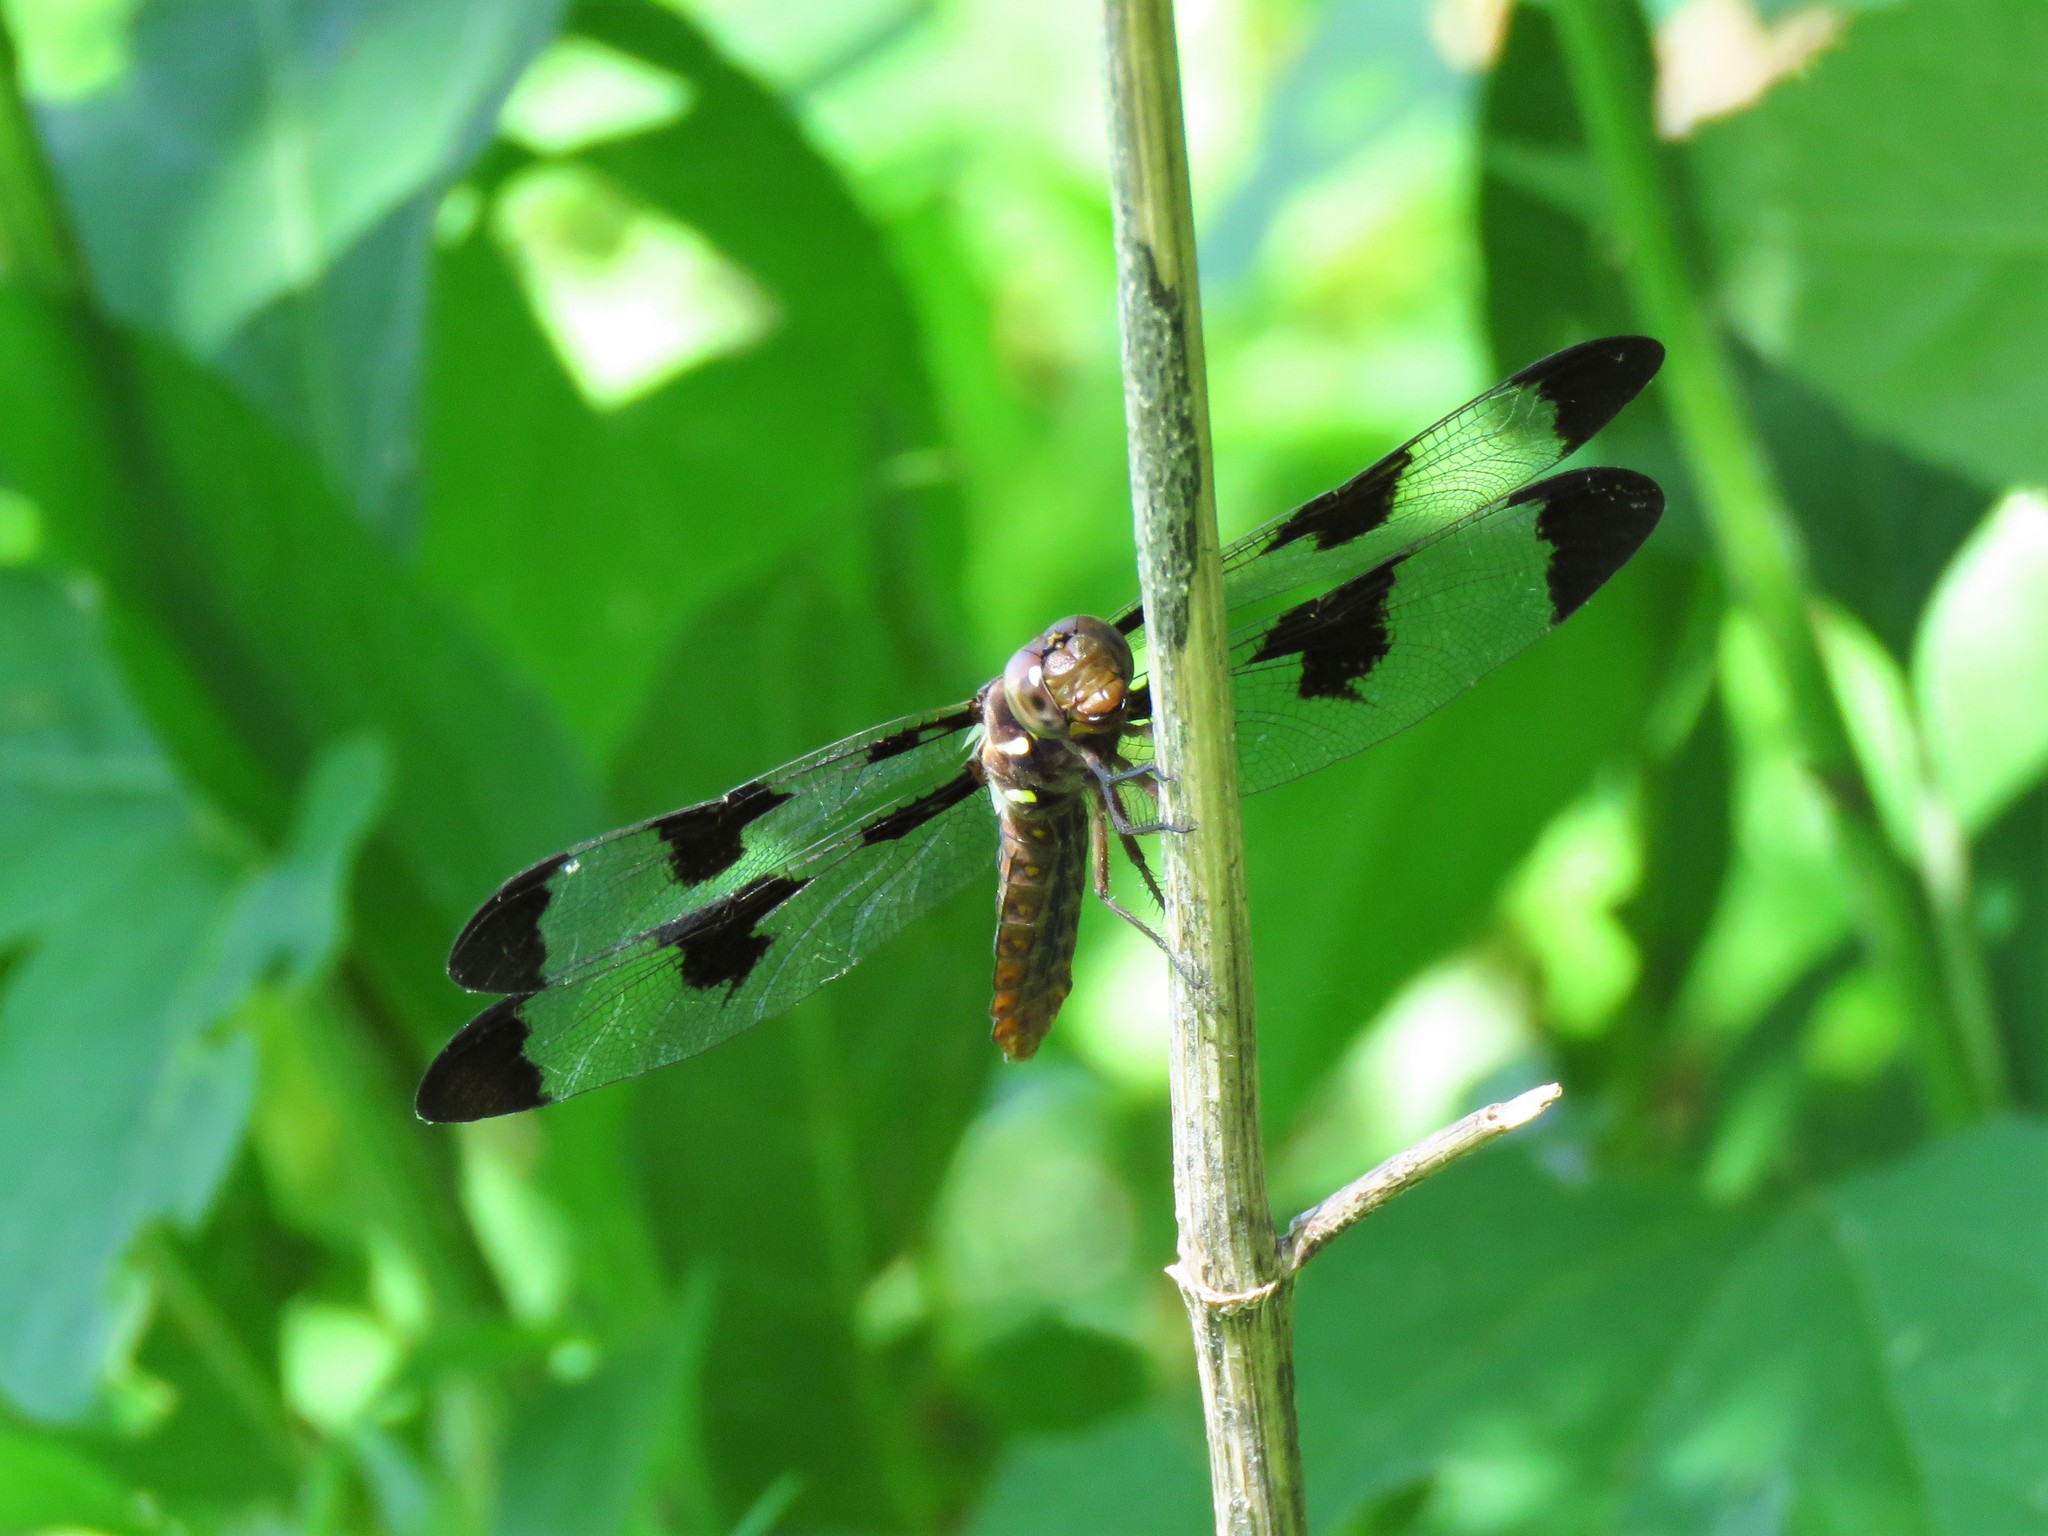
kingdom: Animalia
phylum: Arthropoda
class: Insecta
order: Odonata
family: Libellulidae
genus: Plathemis
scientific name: Plathemis lydia
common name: Common whitetail
